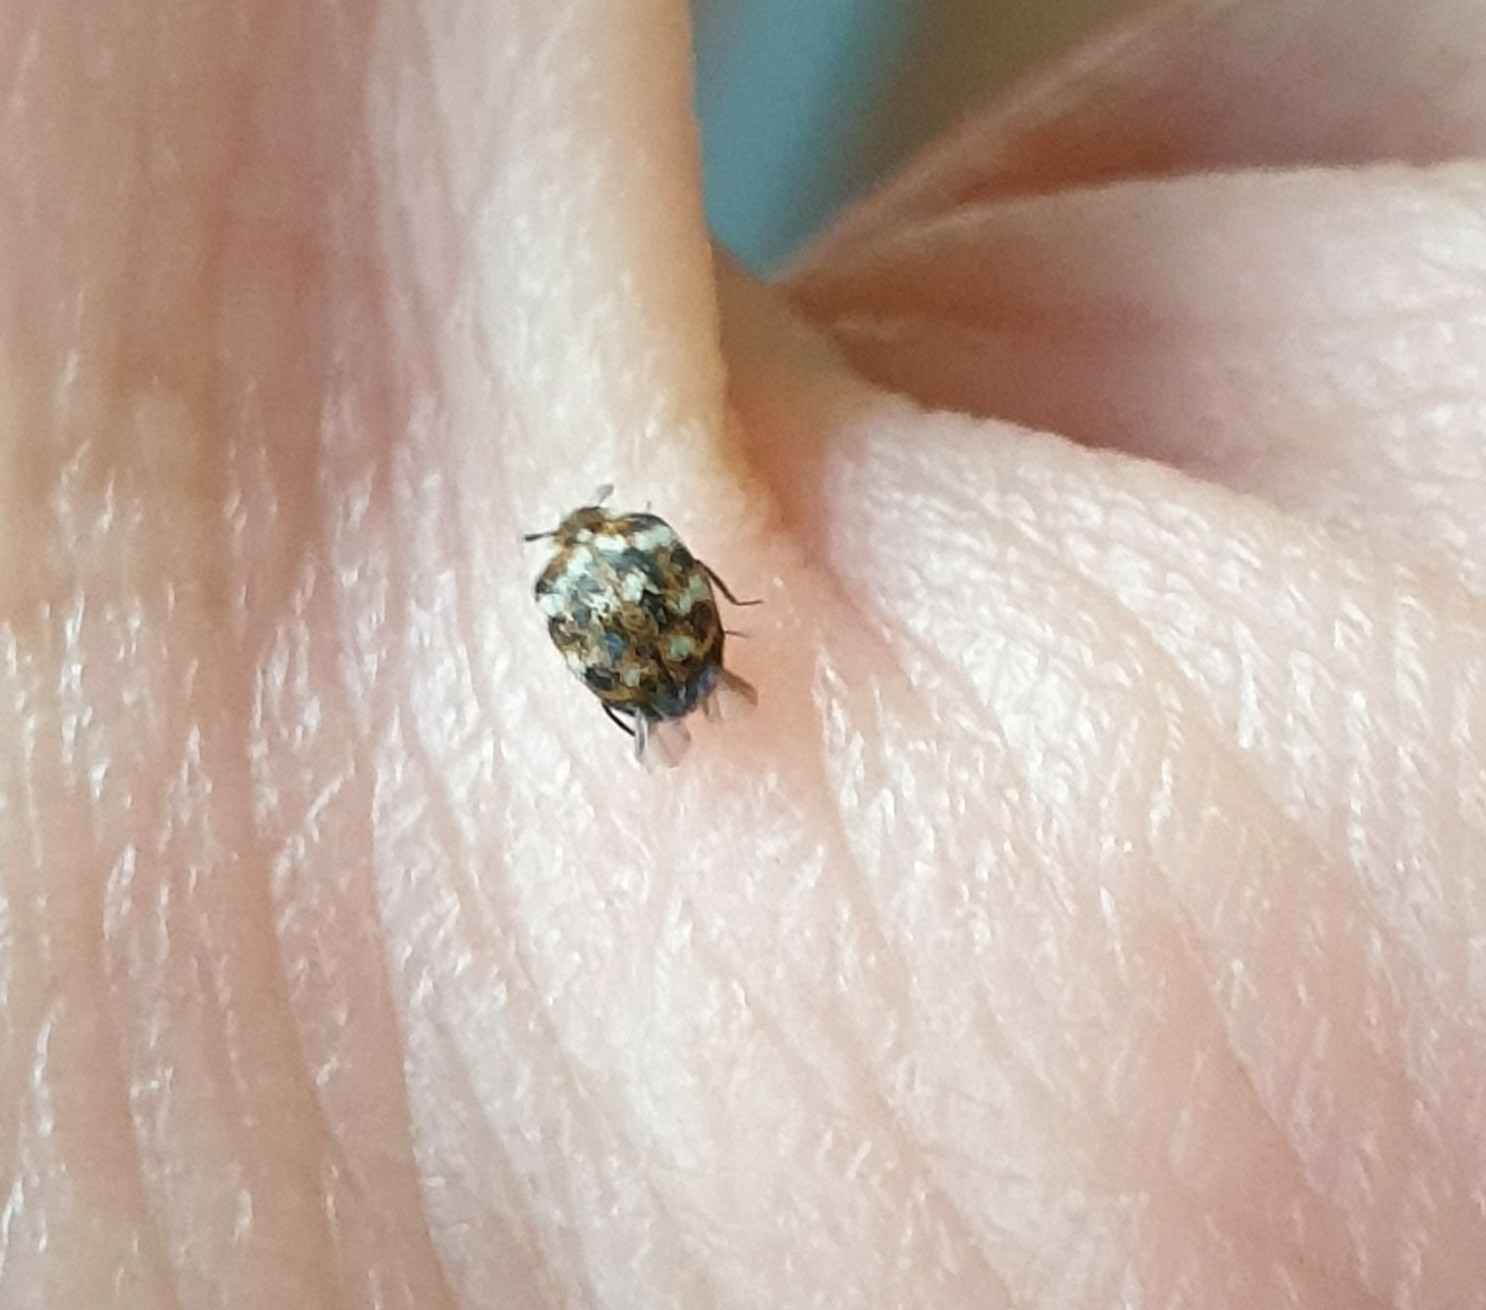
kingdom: Animalia
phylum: Arthropoda
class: Insecta
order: Coleoptera
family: Dermestidae
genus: Anthrenus
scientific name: Anthrenus verbasci
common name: Varied carpet beetle
